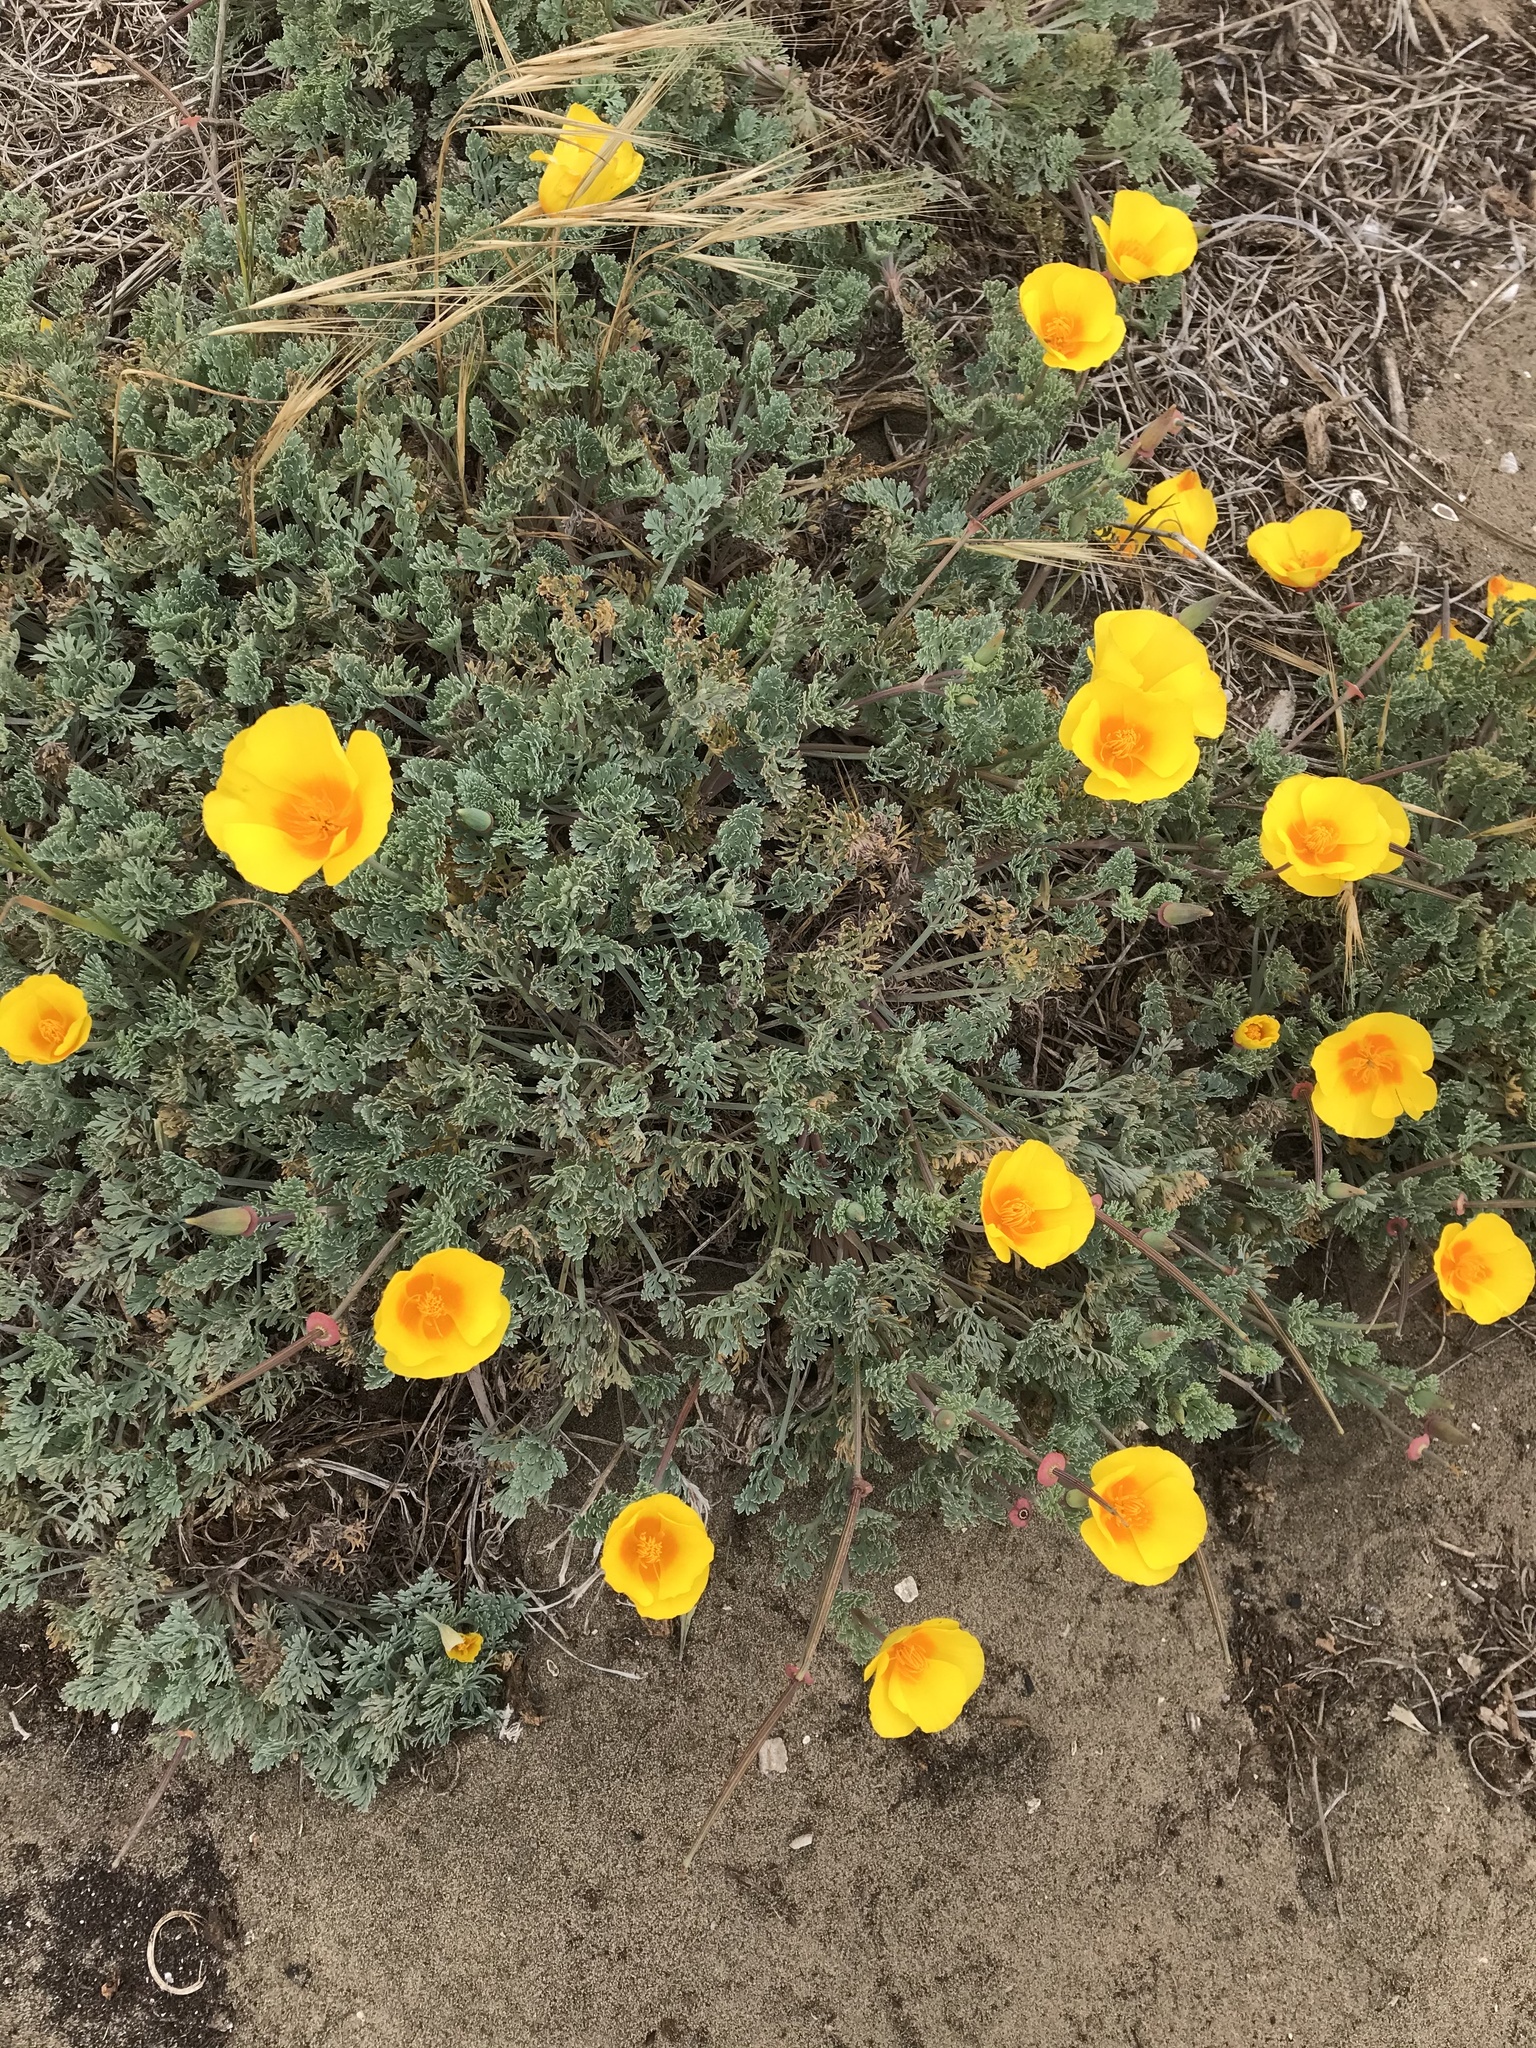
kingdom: Plantae
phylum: Tracheophyta
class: Magnoliopsida
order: Ranunculales
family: Papaveraceae
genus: Eschscholzia
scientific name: Eschscholzia californica
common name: California poppy
